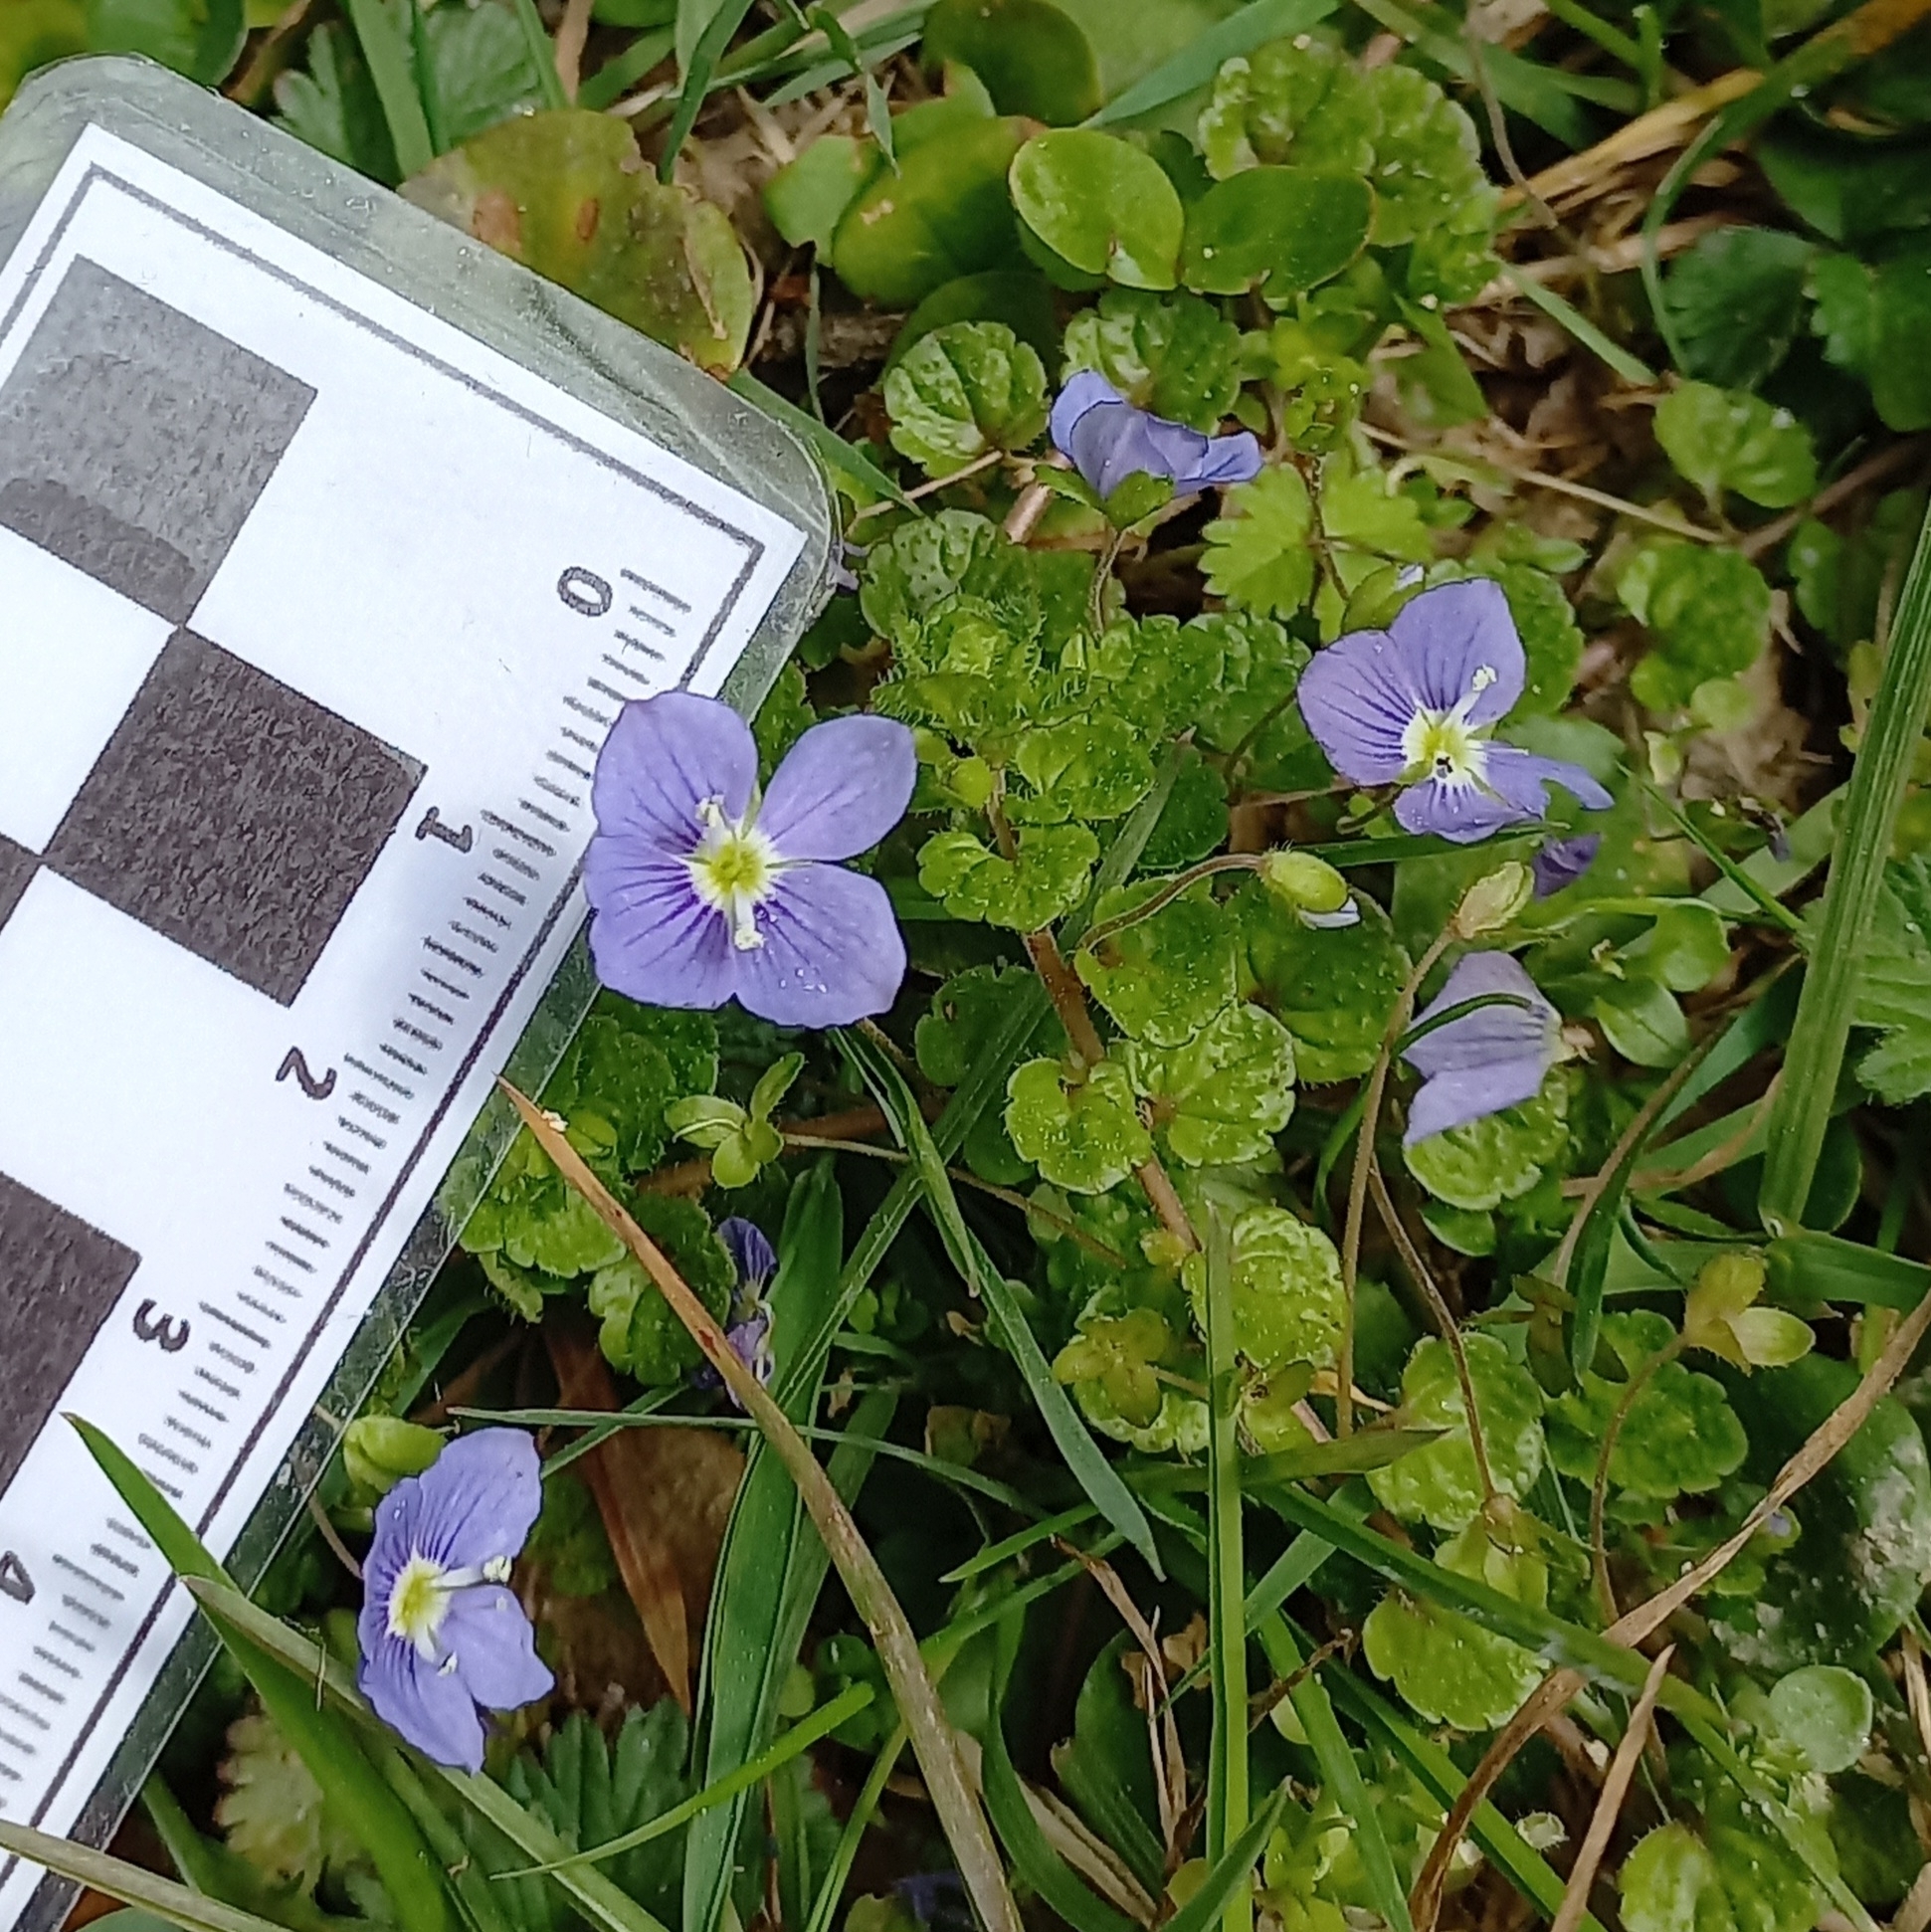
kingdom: Plantae
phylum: Tracheophyta
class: Magnoliopsida
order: Lamiales
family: Plantaginaceae
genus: Veronica
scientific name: Veronica filiformis
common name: Slender speedwell
